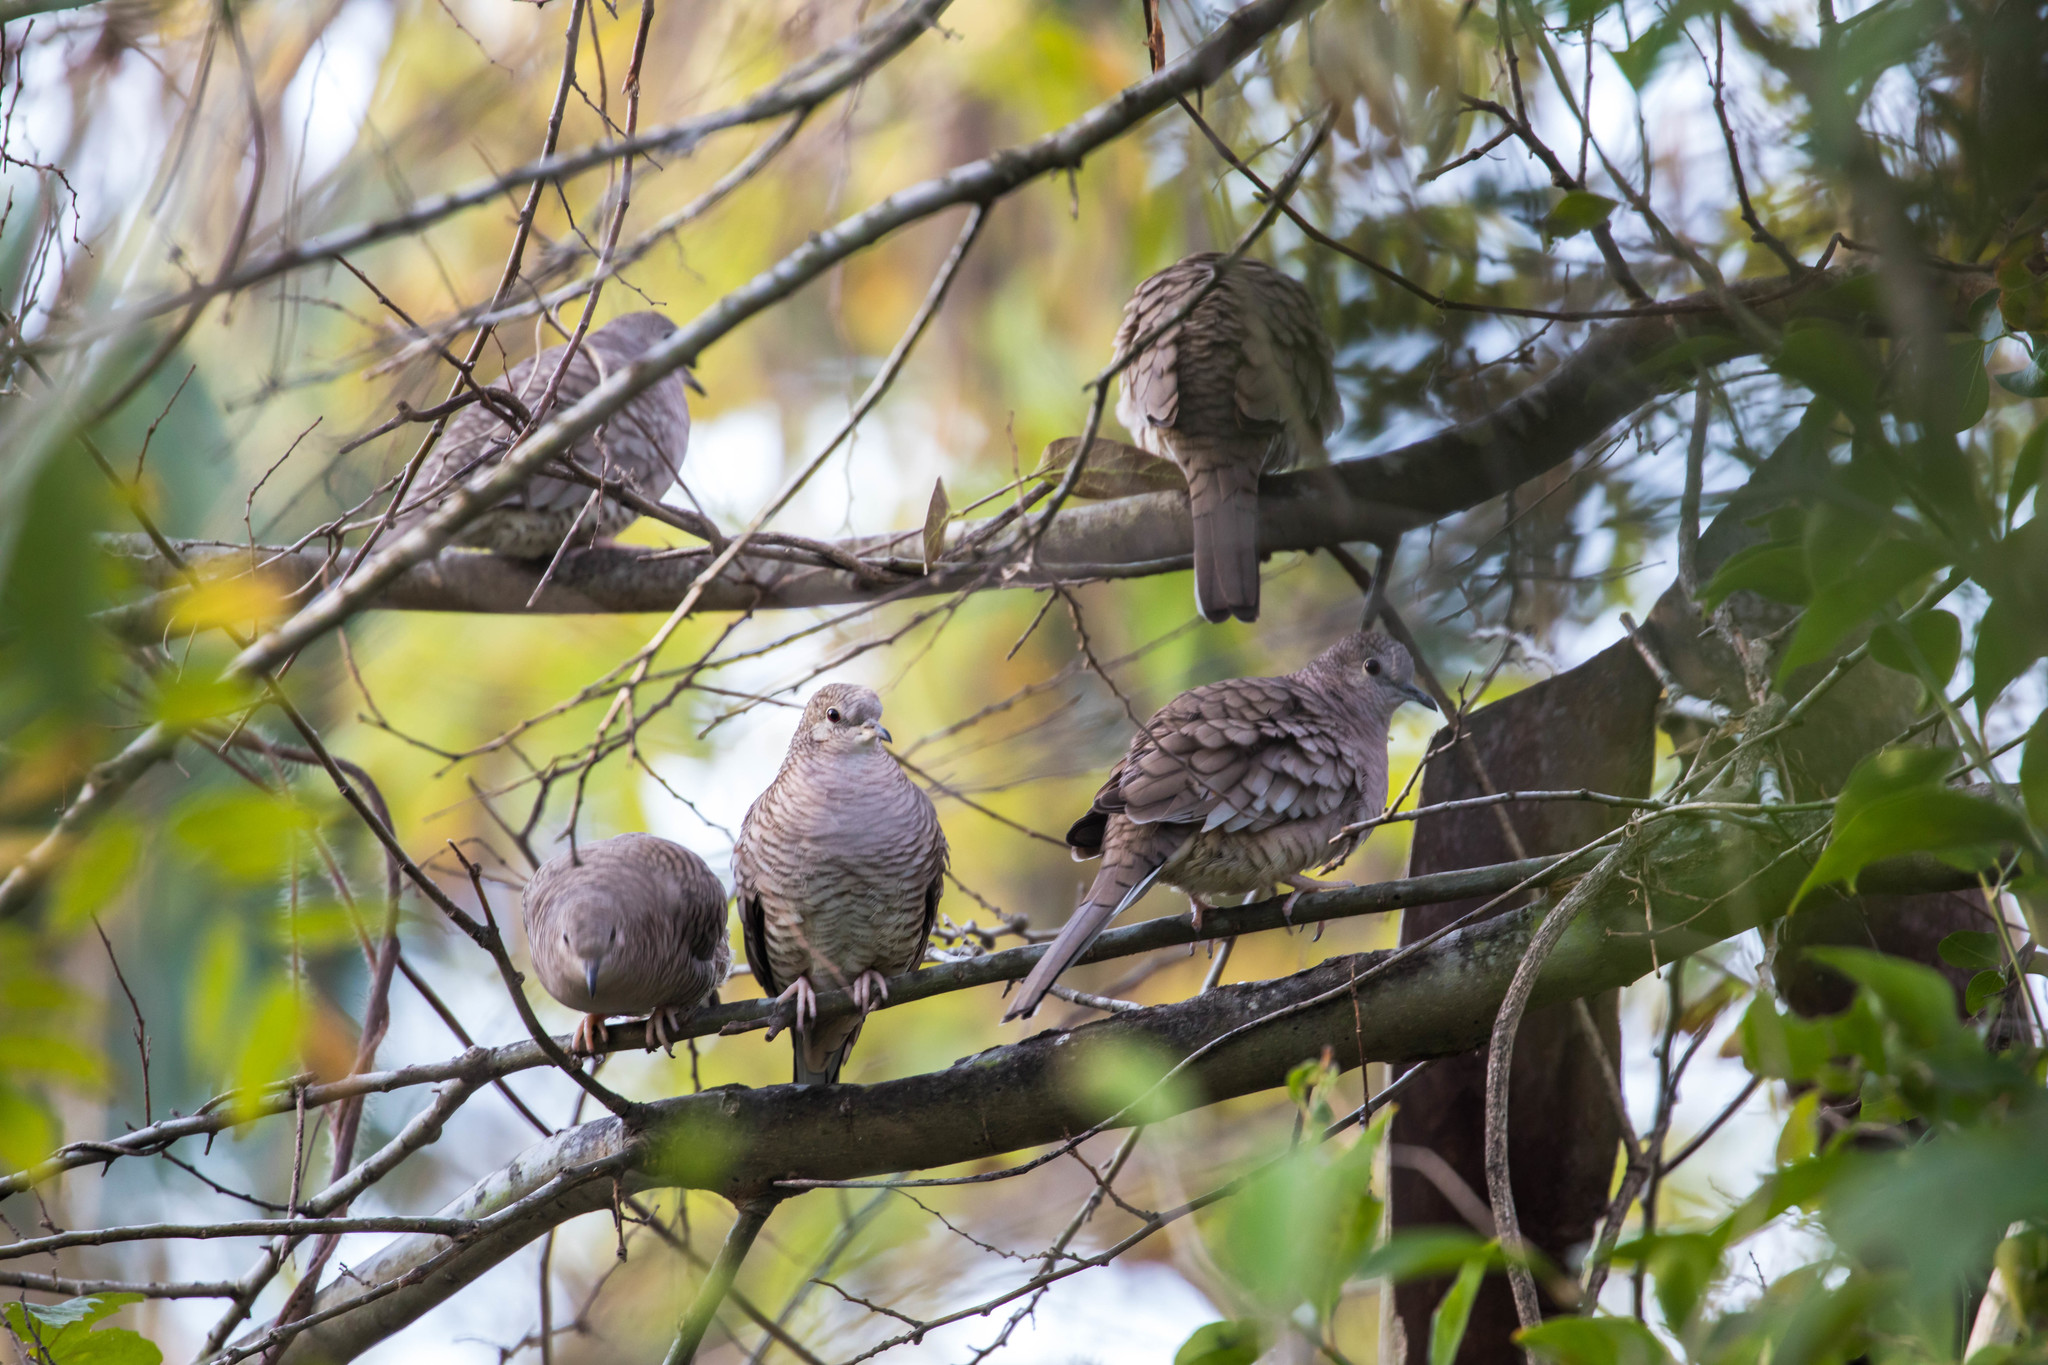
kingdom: Animalia
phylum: Chordata
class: Aves
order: Columbiformes
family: Columbidae
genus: Columbina
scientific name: Columbina inca
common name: Inca dove
